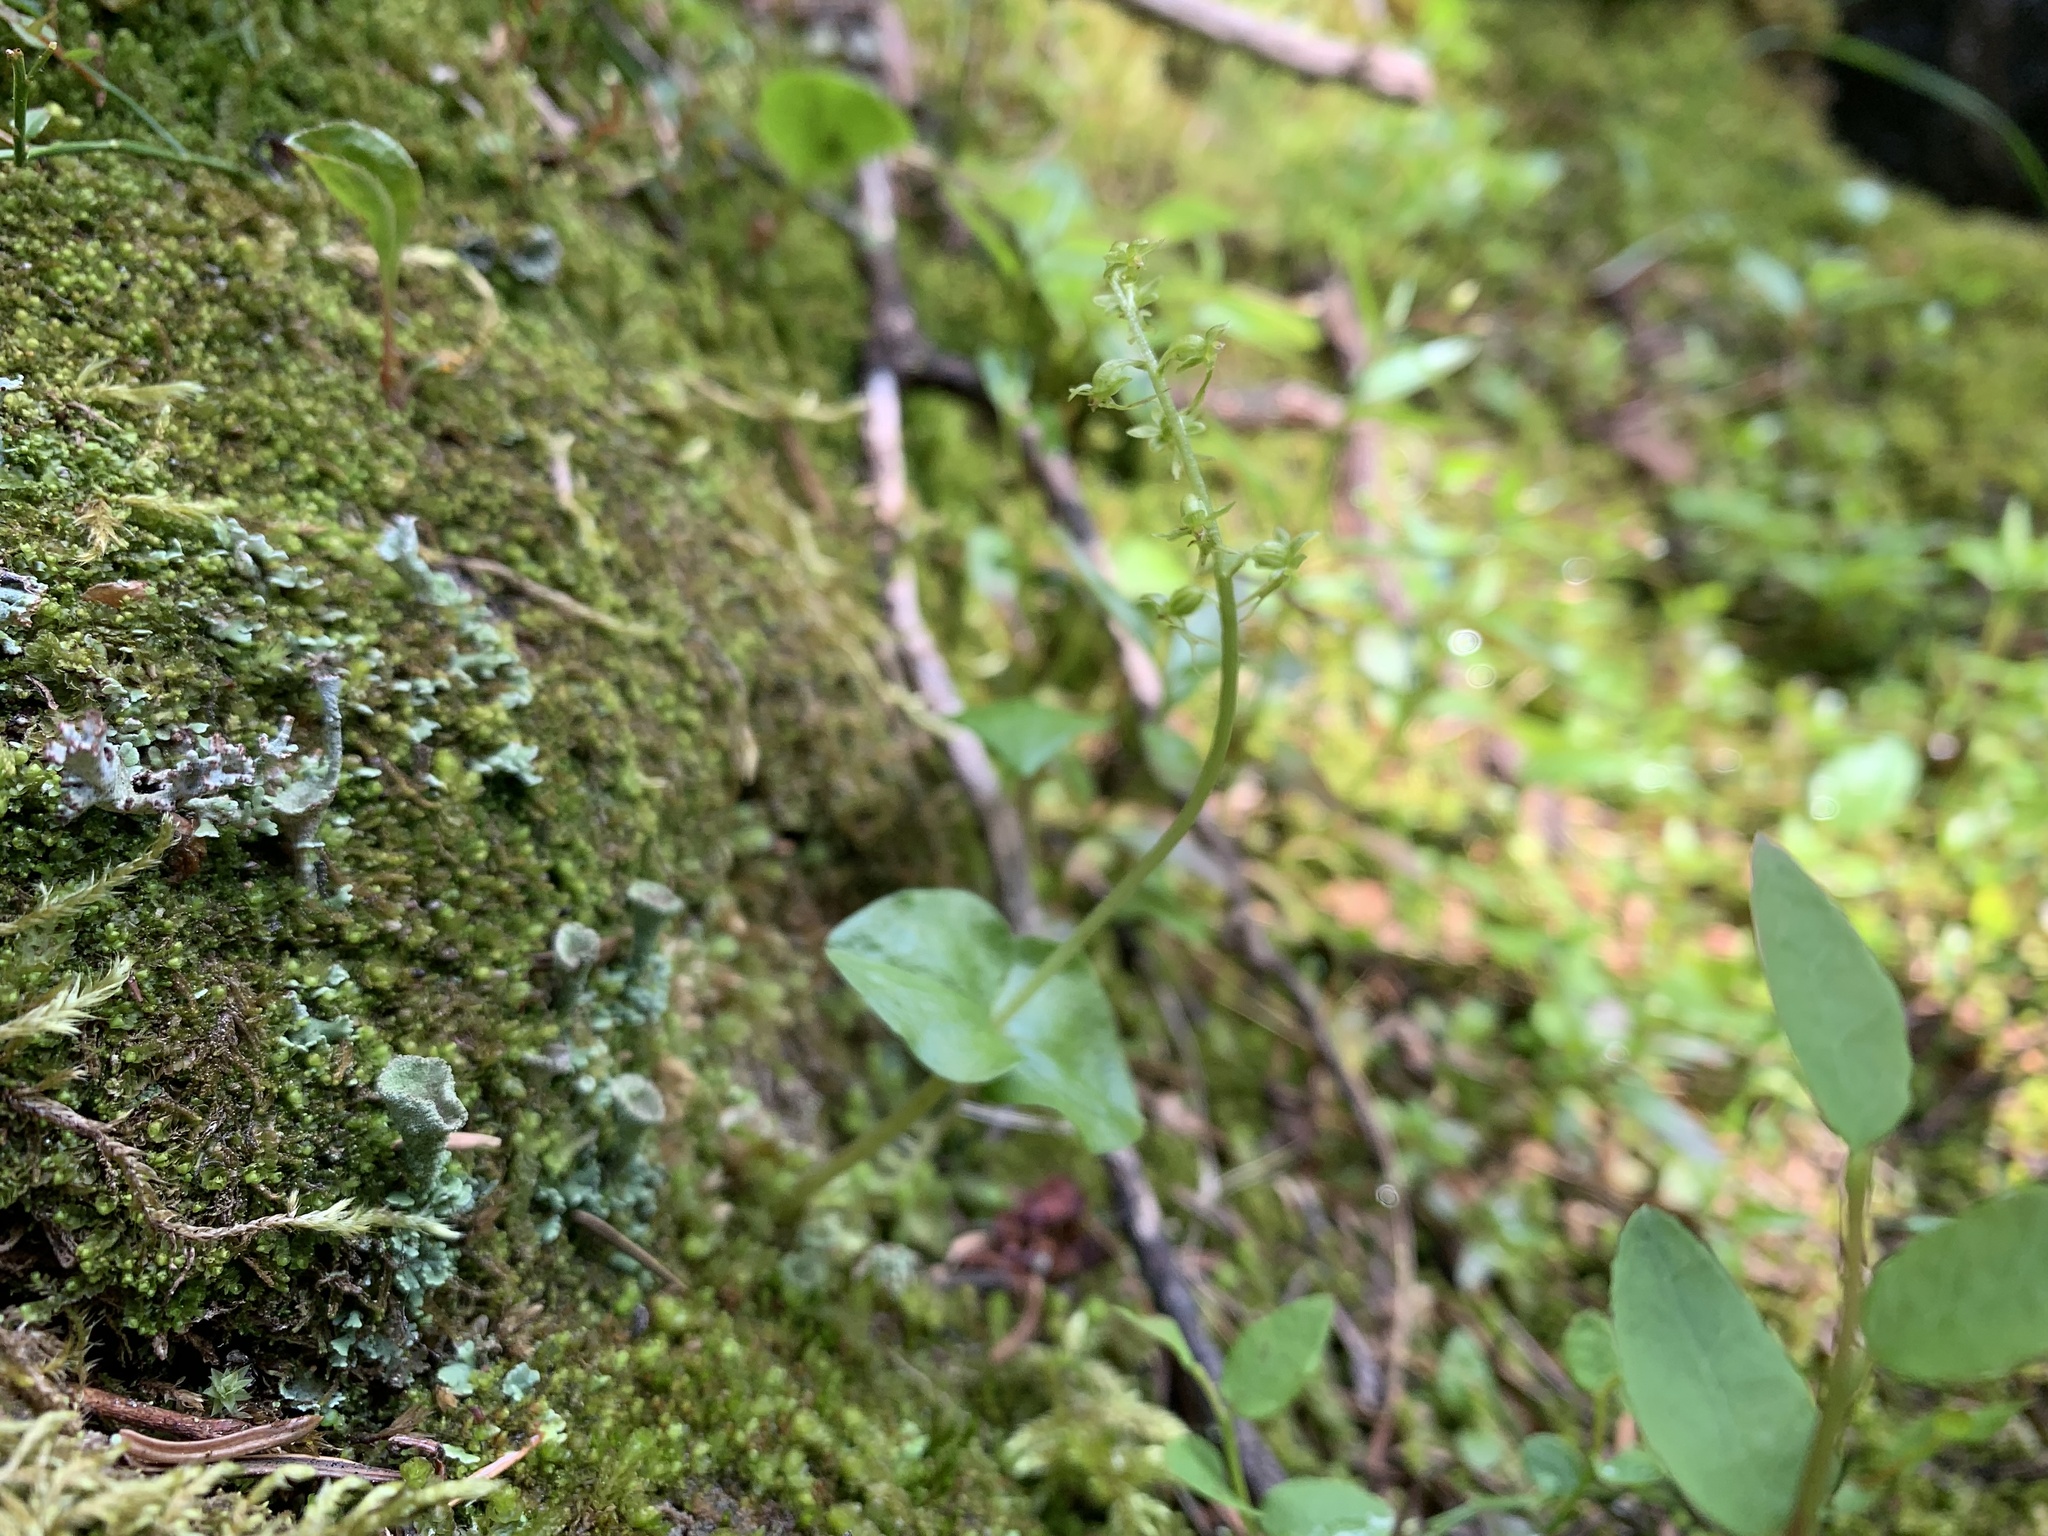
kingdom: Plantae
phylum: Tracheophyta
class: Liliopsida
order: Asparagales
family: Orchidaceae
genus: Neottia
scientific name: Neottia cordata
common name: Lesser twayblade
